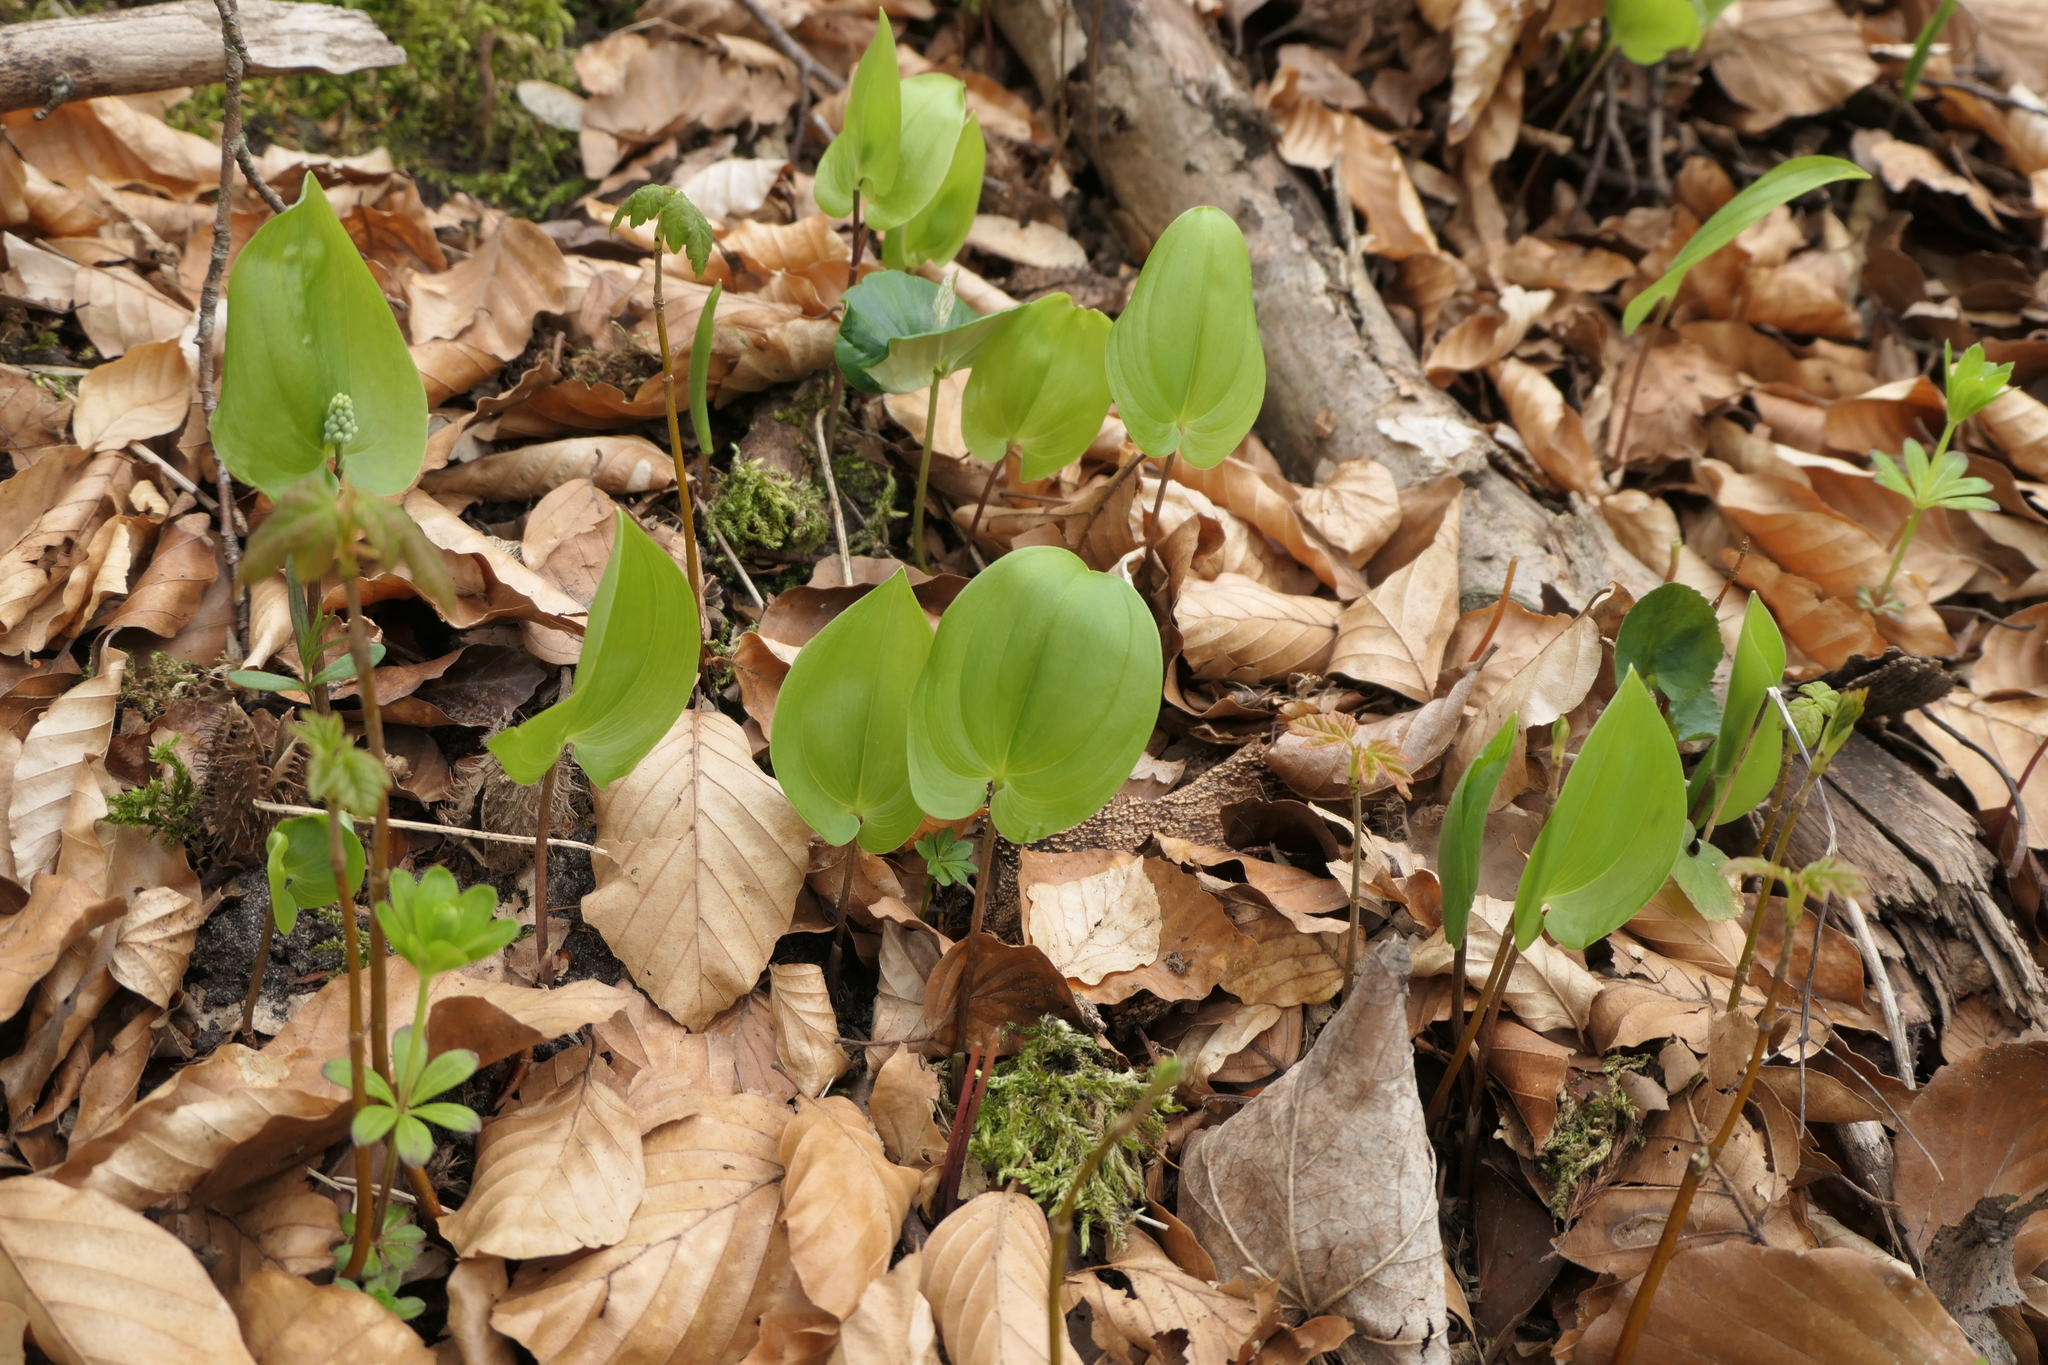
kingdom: Plantae
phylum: Tracheophyta
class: Liliopsida
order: Asparagales
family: Asparagaceae
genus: Maianthemum
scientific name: Maianthemum bifolium
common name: May lily
